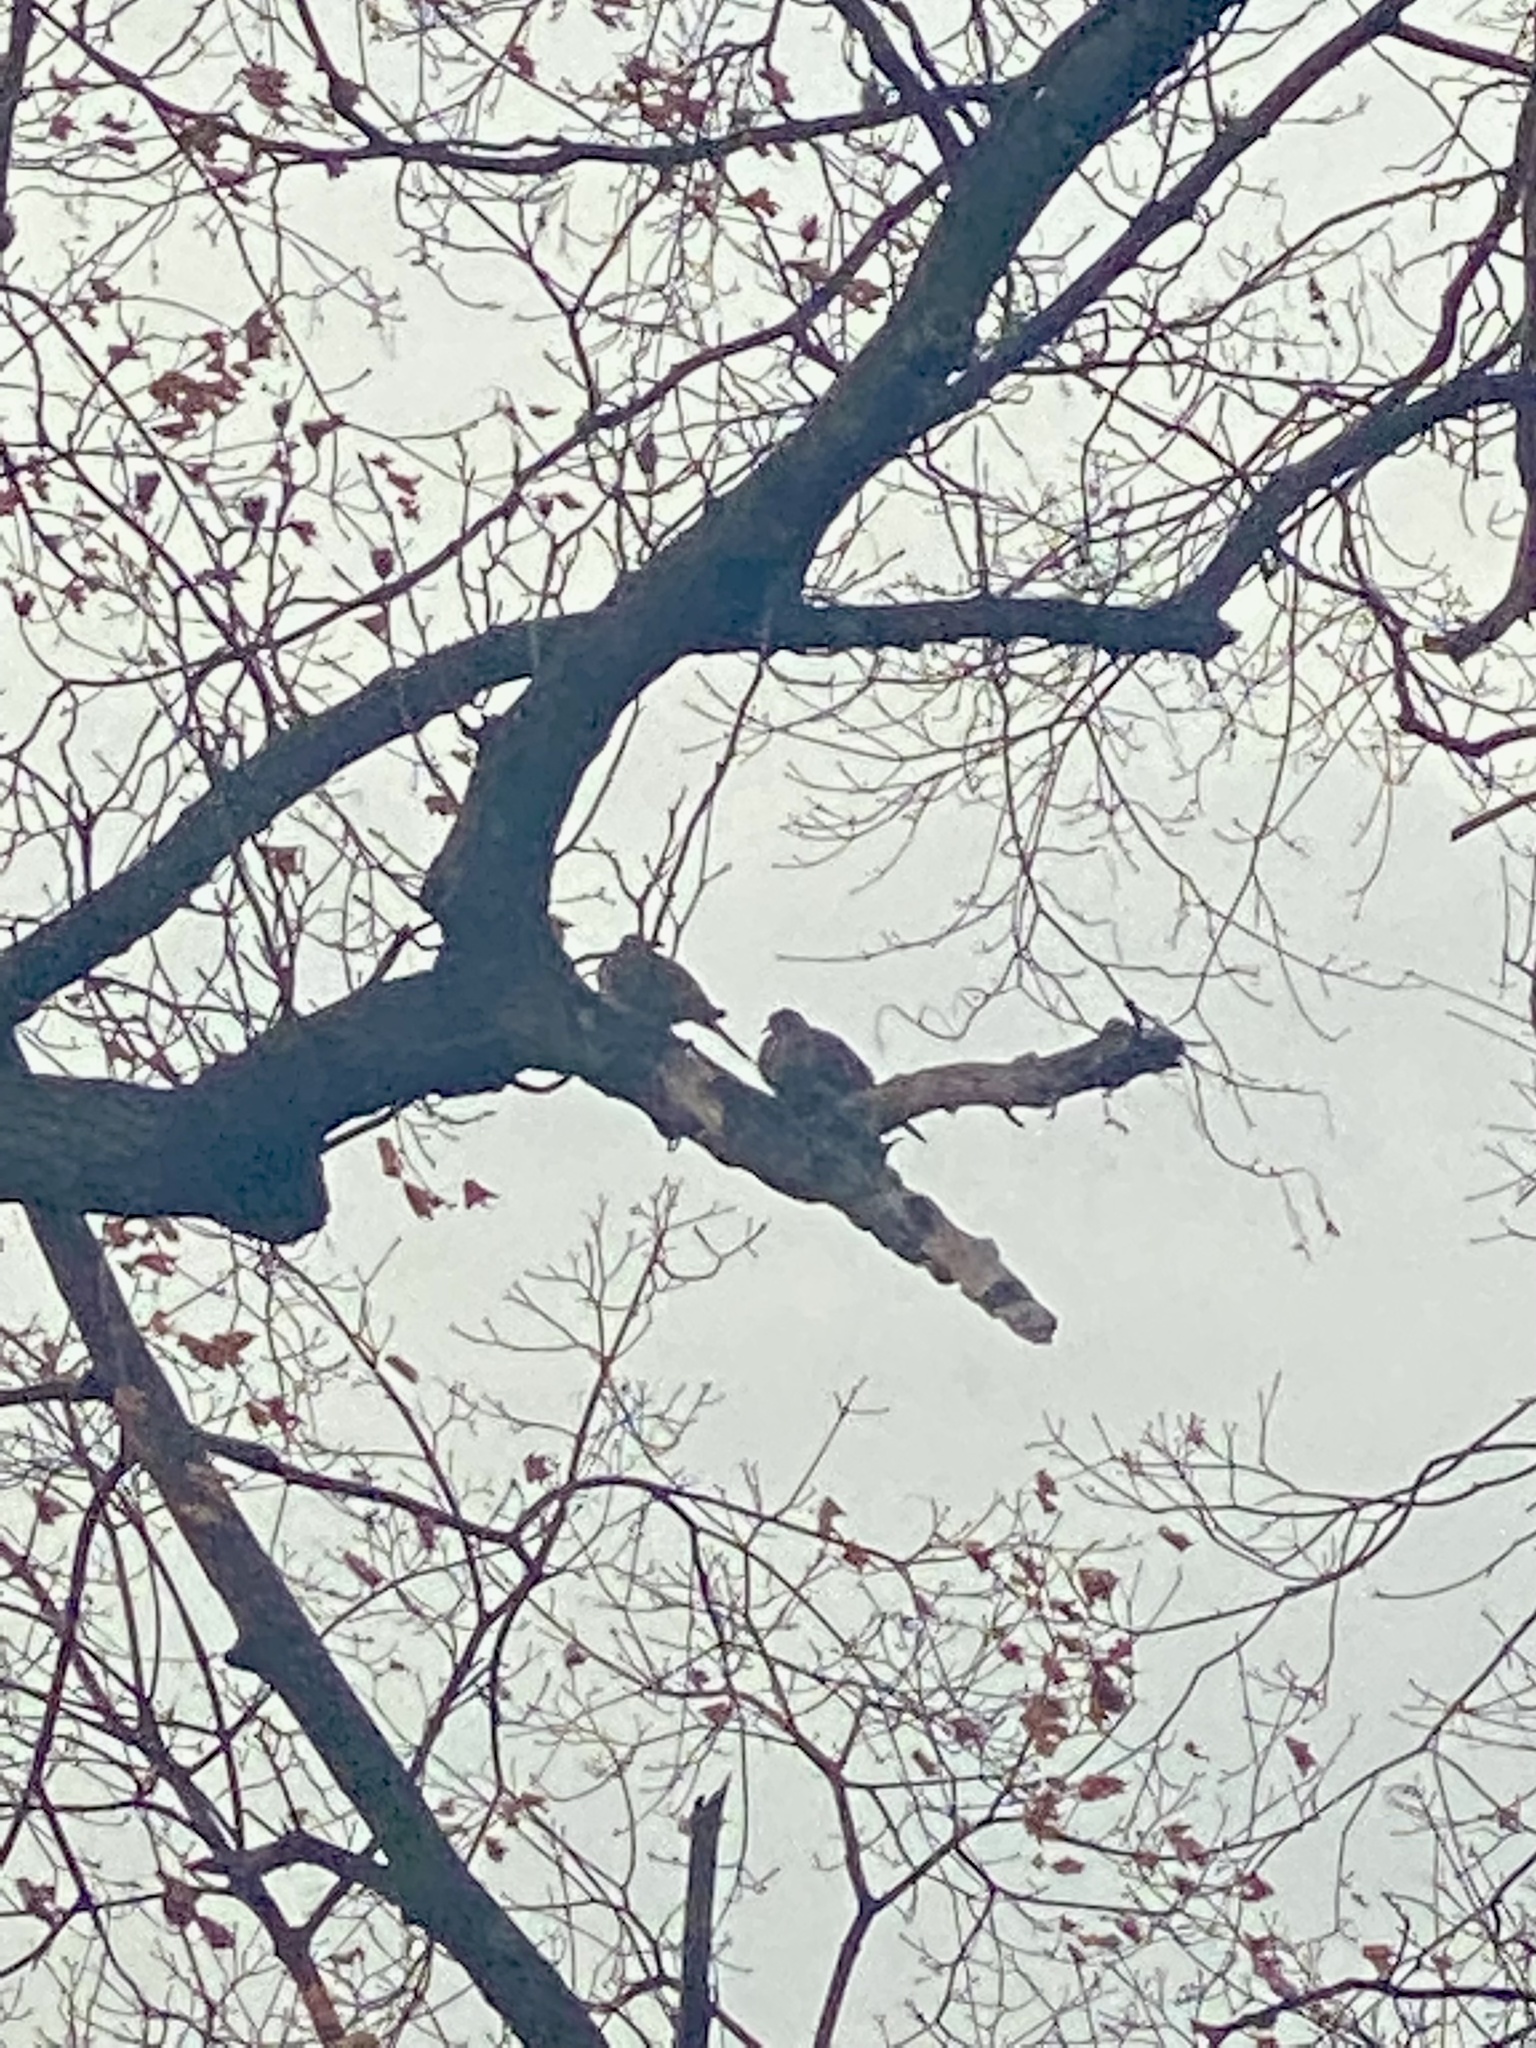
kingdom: Animalia
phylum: Chordata
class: Aves
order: Columbiformes
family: Columbidae
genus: Zenaida
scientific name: Zenaida macroura
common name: Mourning dove
